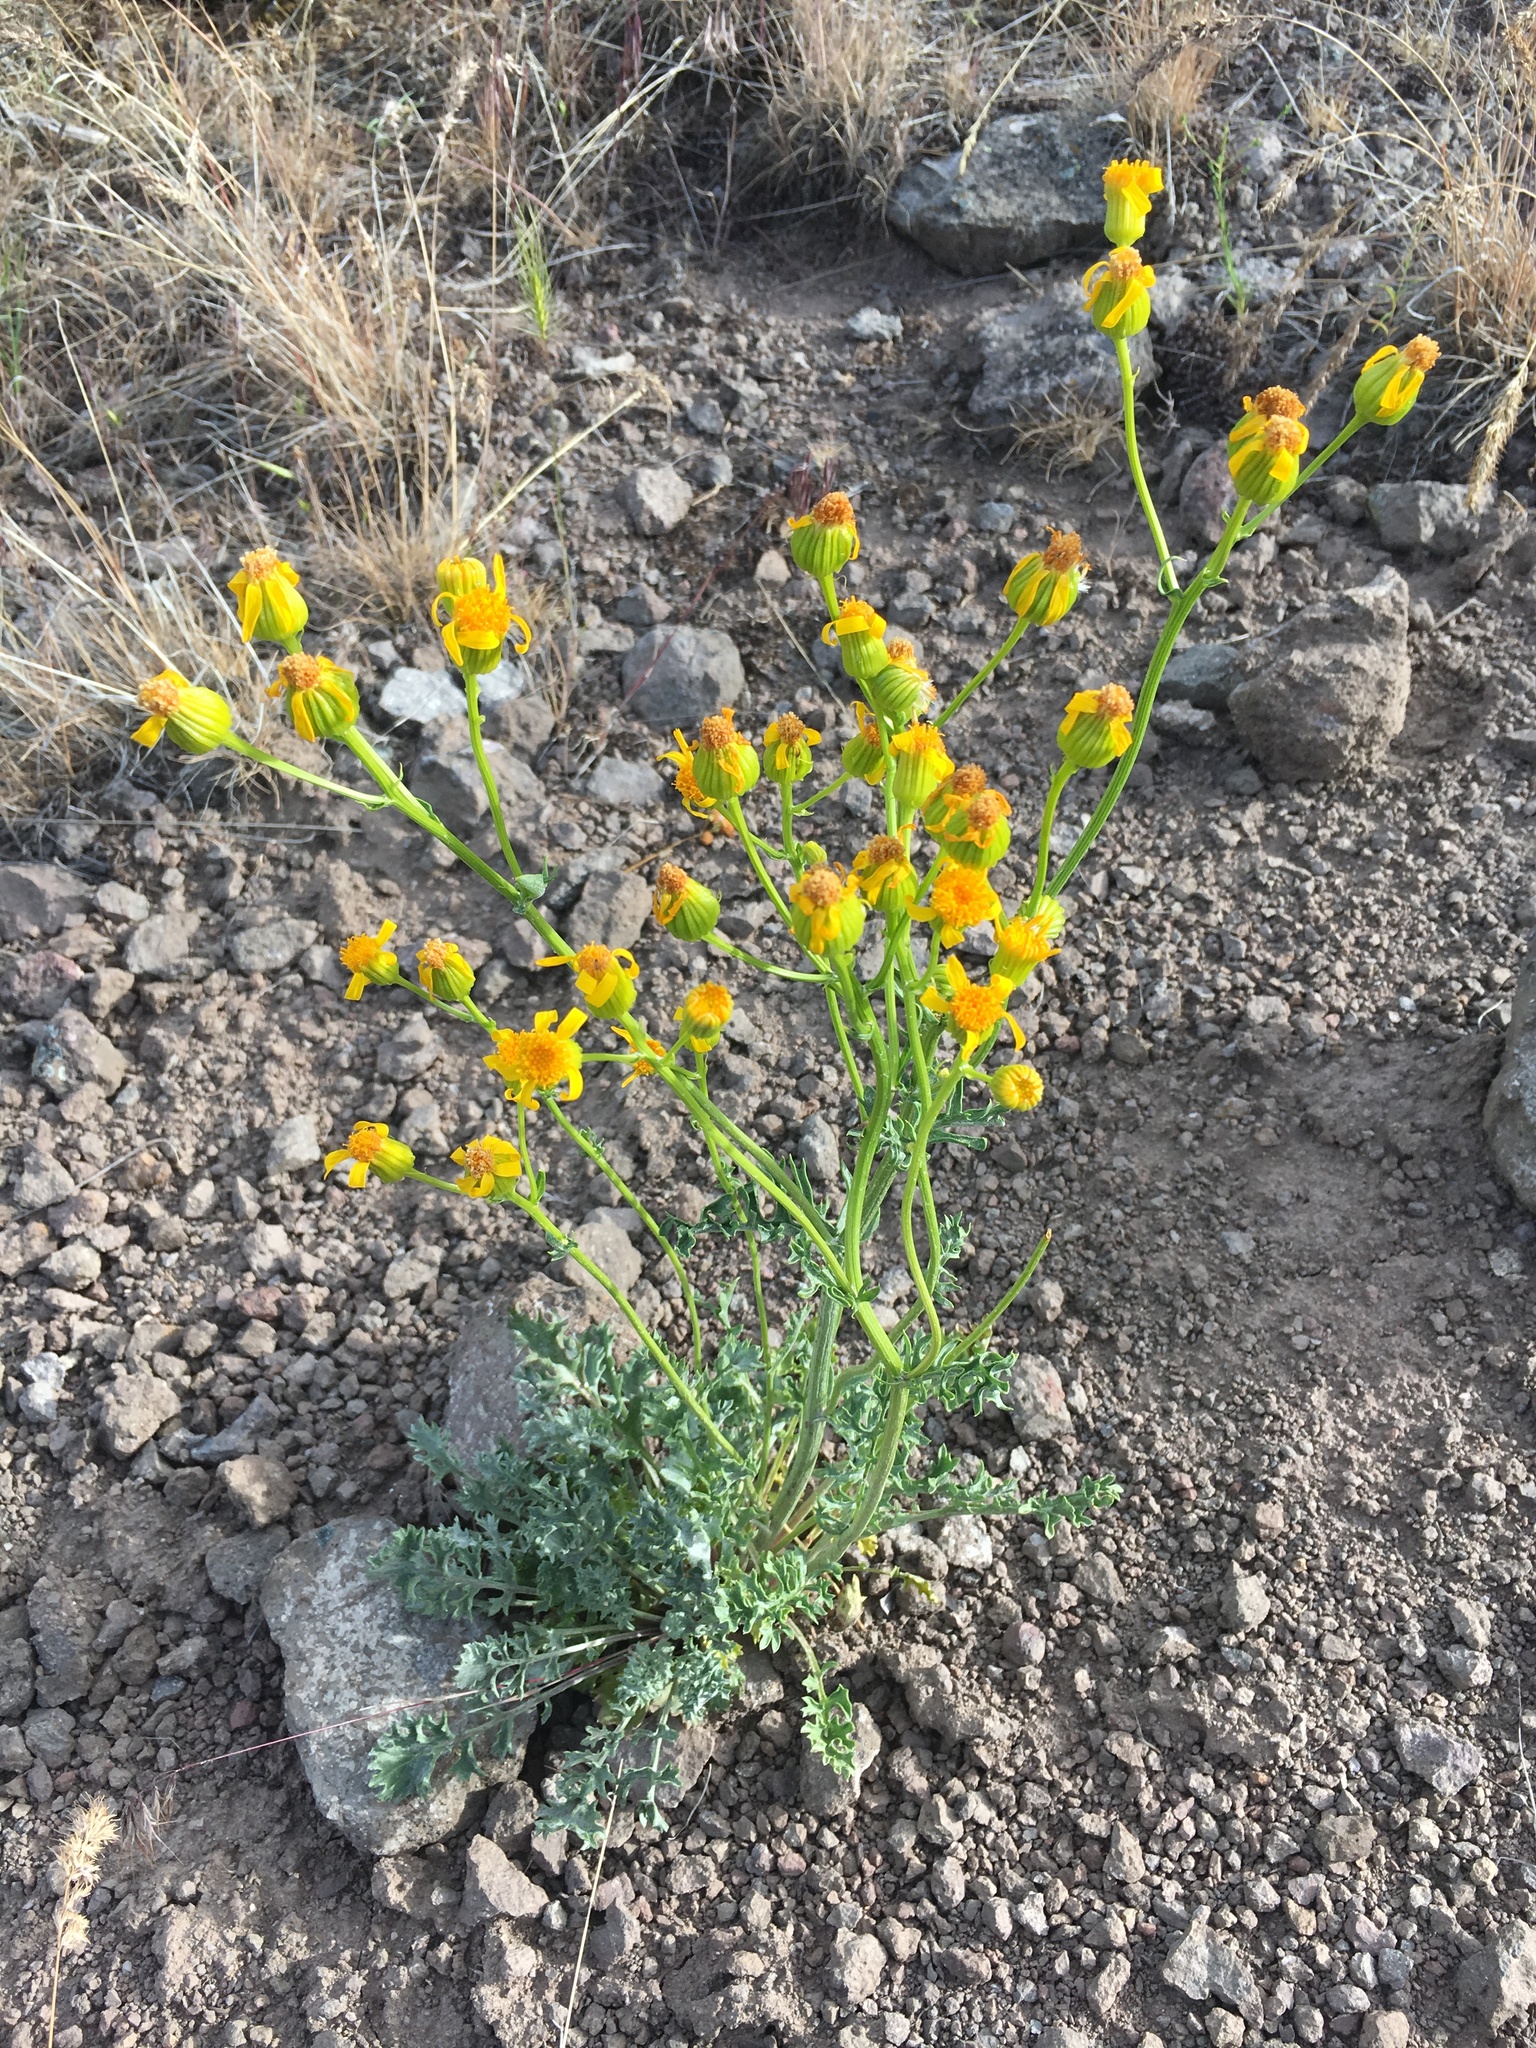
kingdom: Plantae
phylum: Tracheophyta
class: Magnoliopsida
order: Asterales
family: Asteraceae
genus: Packera
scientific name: Packera eurycephala
